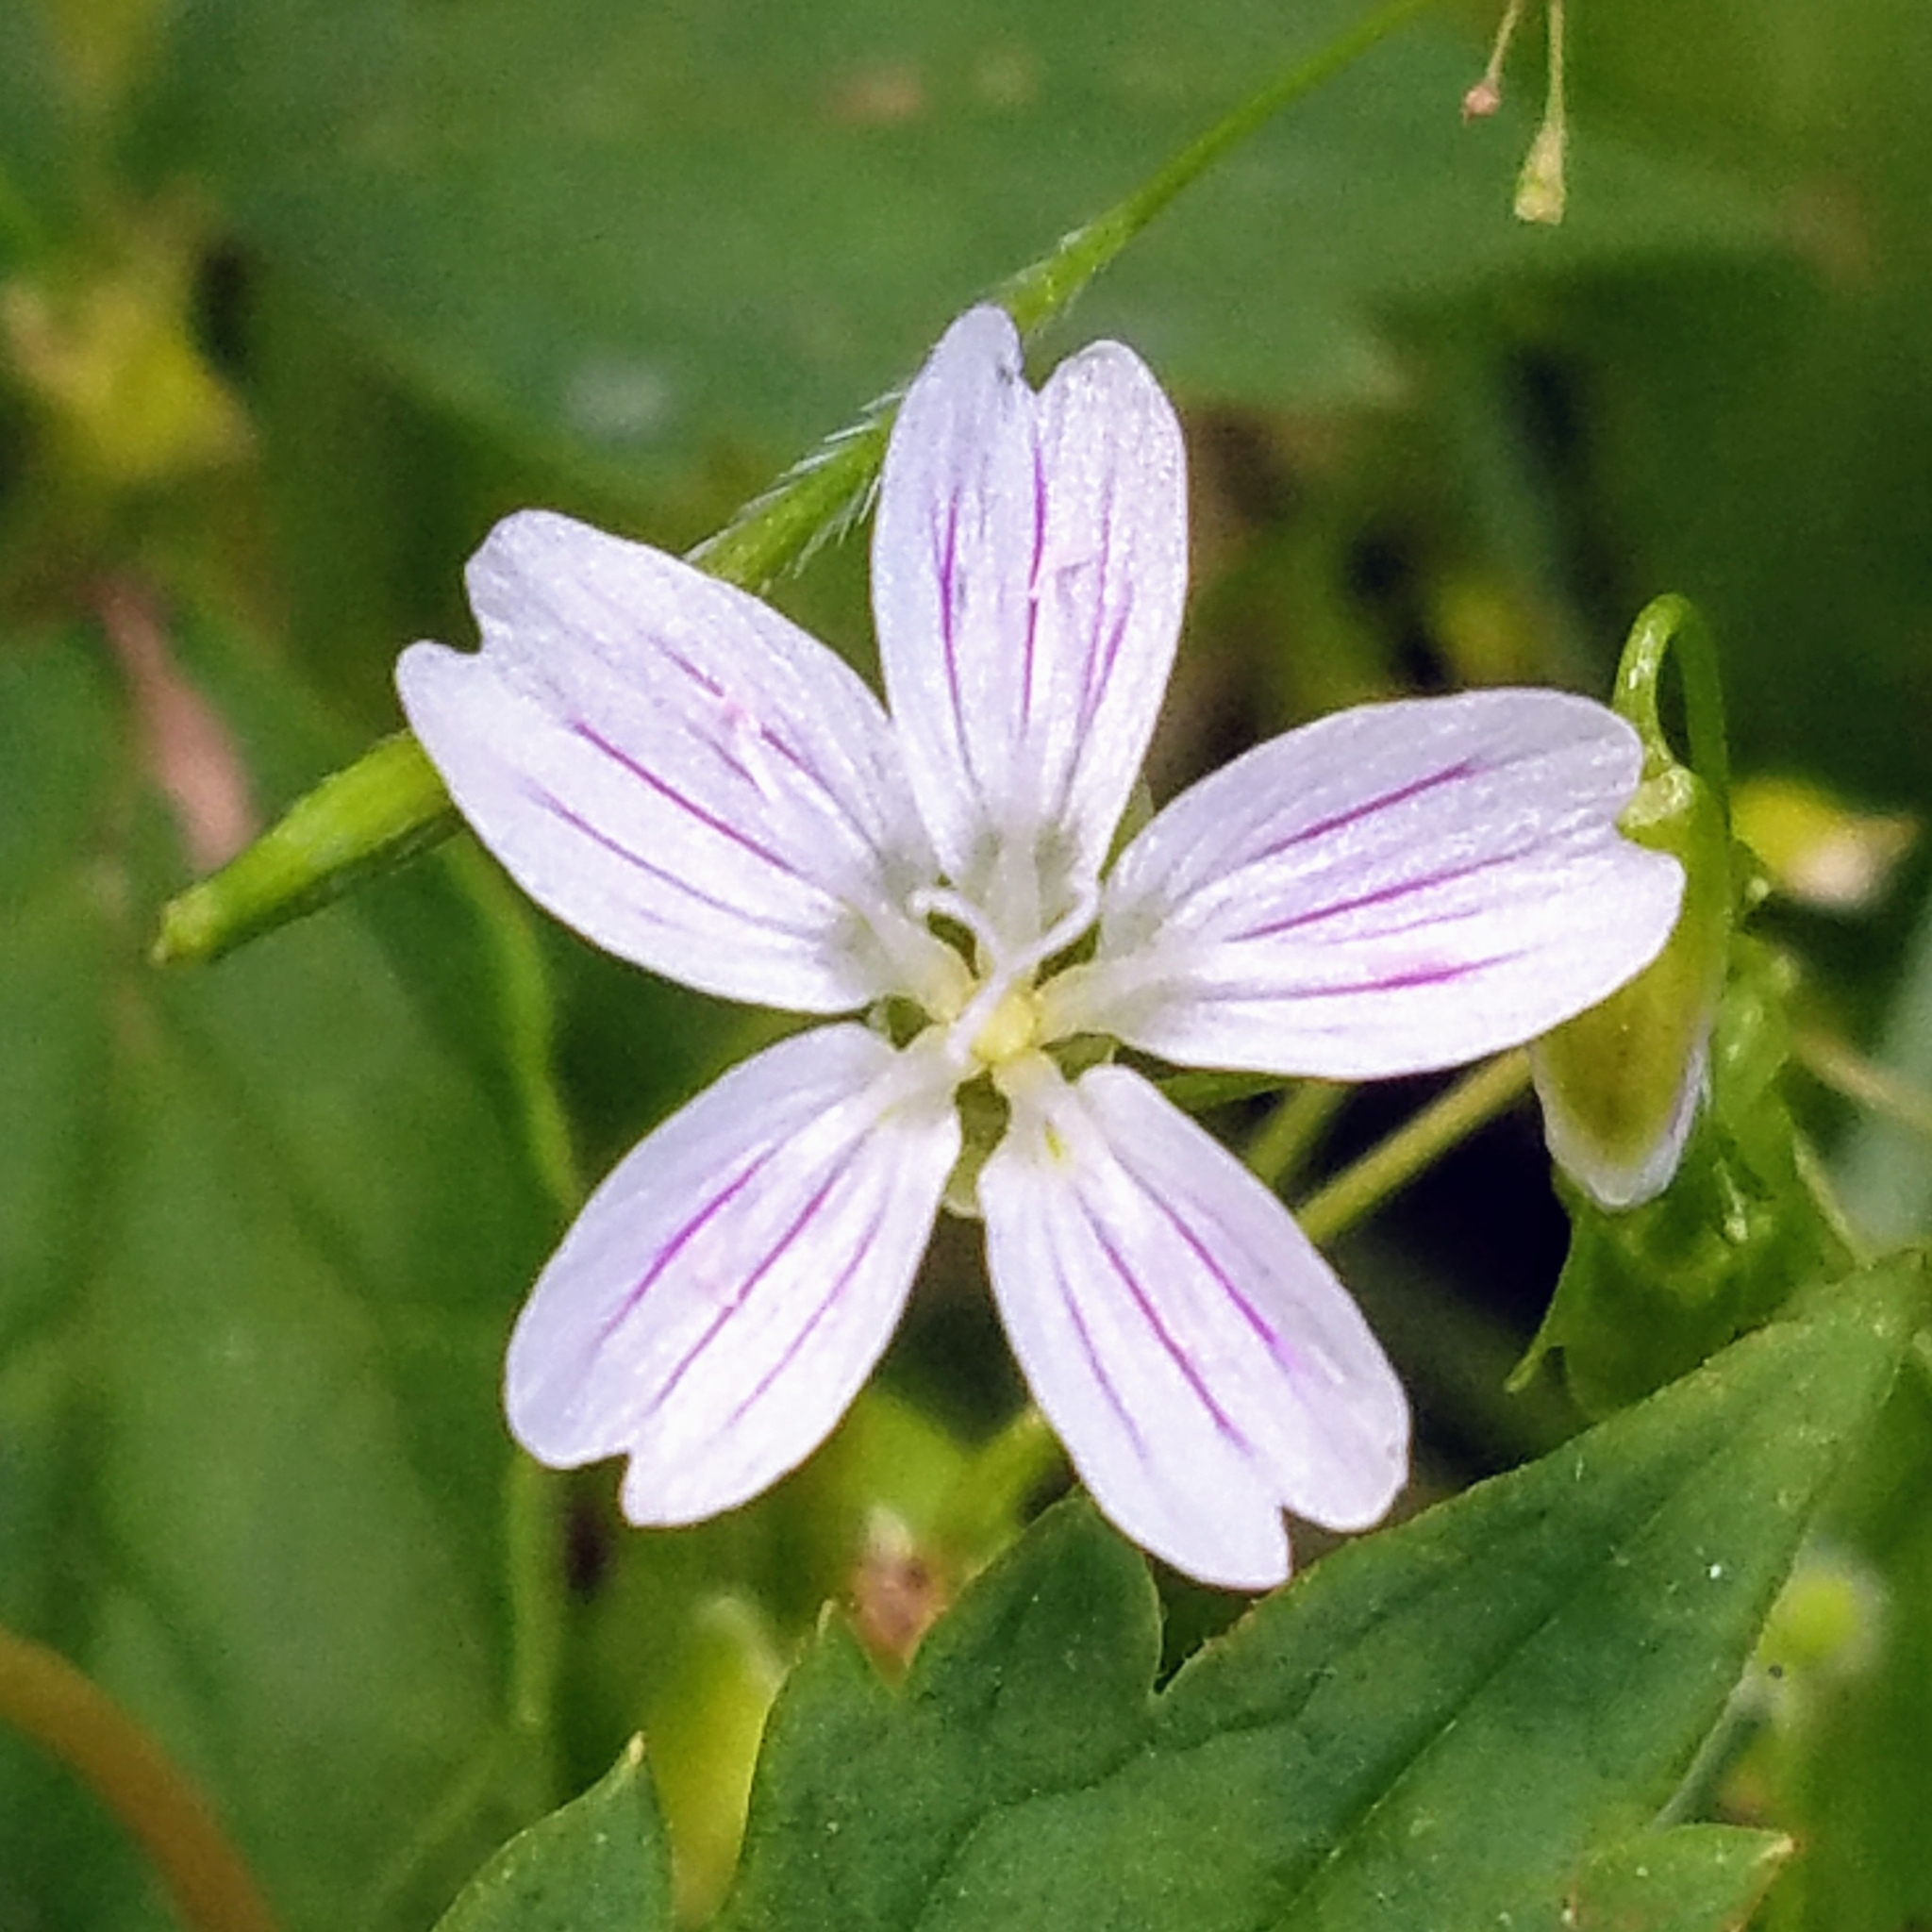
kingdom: Plantae
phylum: Tracheophyta
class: Magnoliopsida
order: Caryophyllales
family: Montiaceae
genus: Claytonia
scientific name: Claytonia sibirica
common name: Pink purslane
